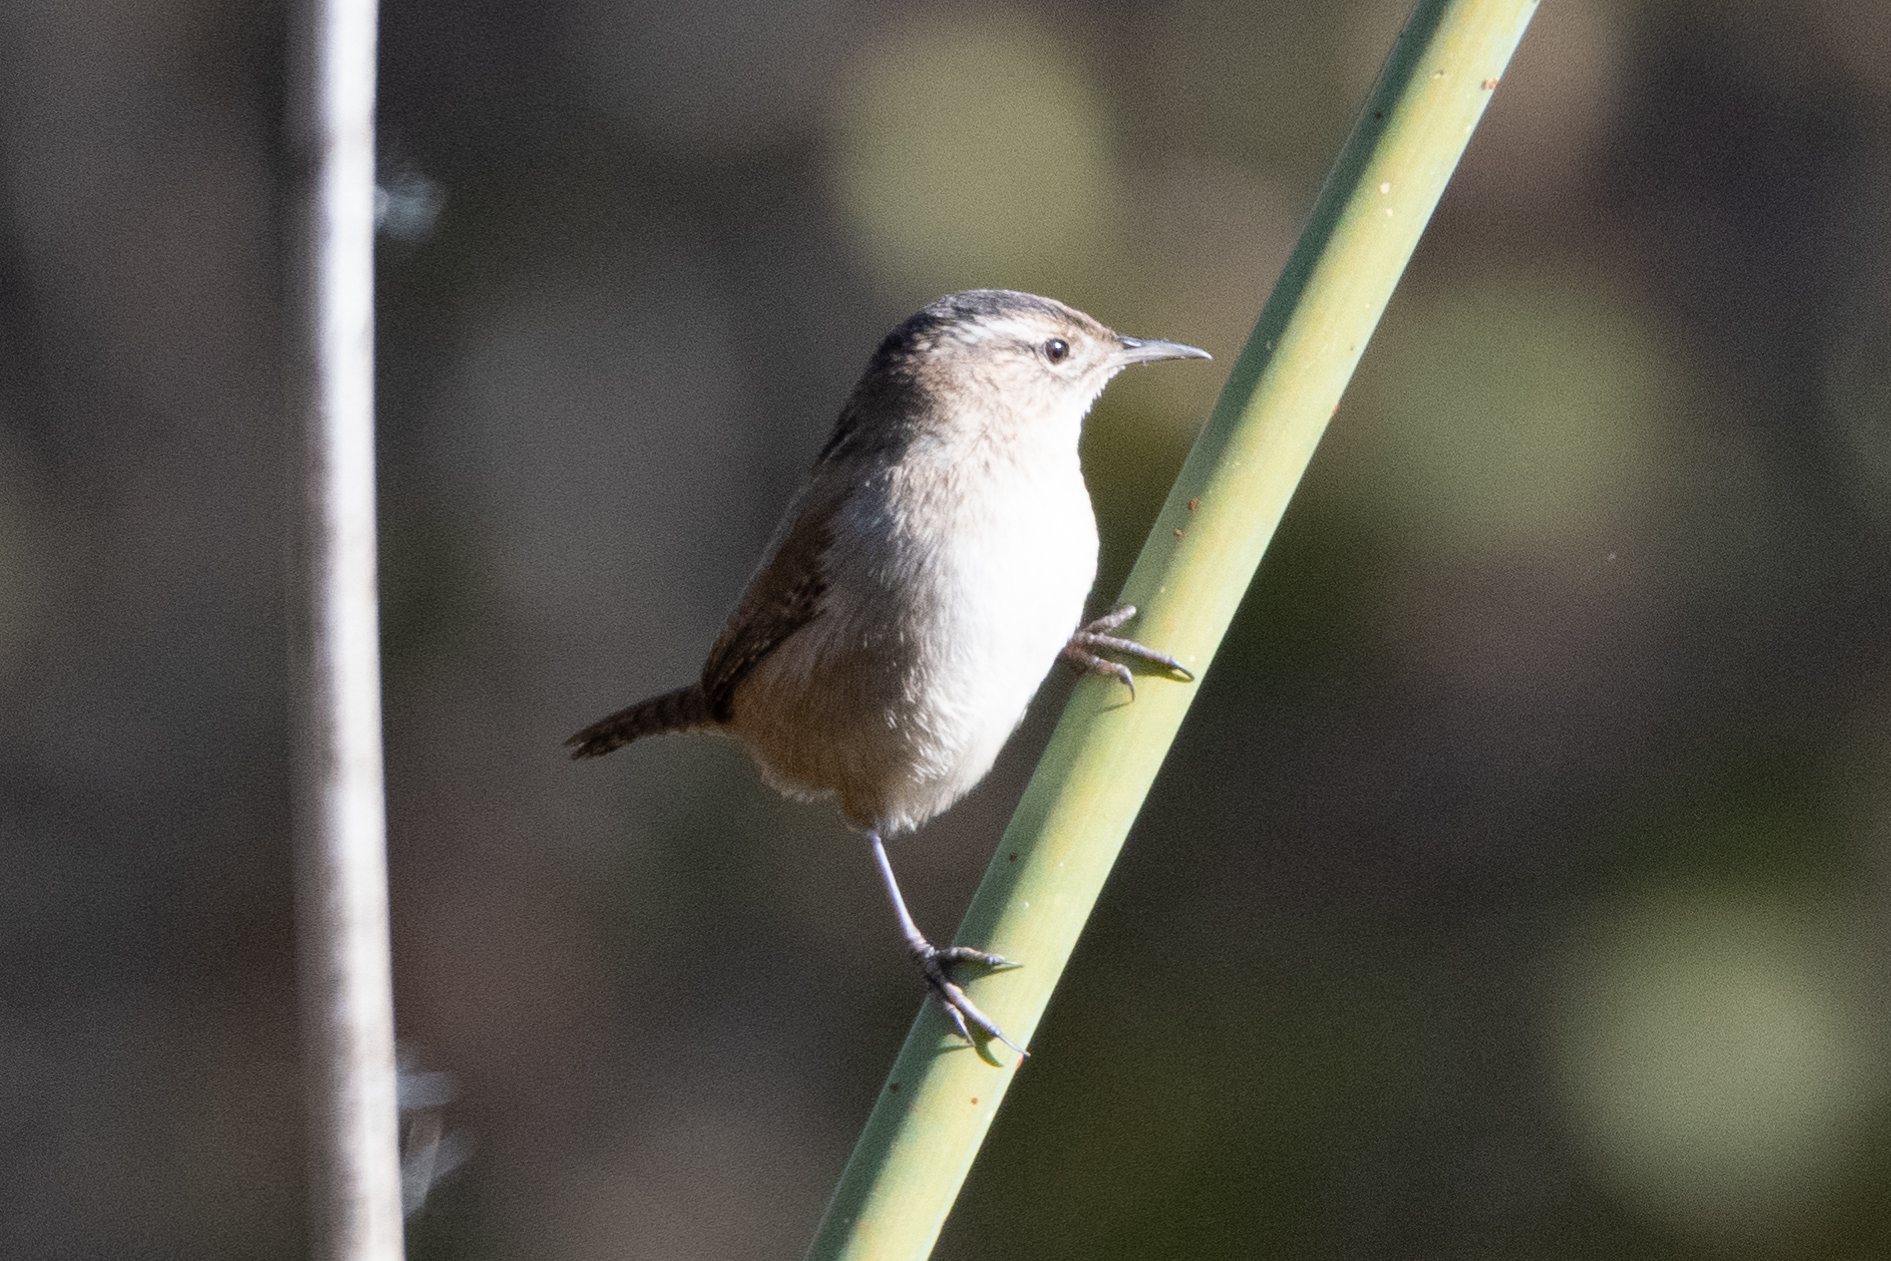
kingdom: Animalia
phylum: Chordata
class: Aves
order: Passeriformes
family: Troglodytidae
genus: Cistothorus
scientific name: Cistothorus palustris
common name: Marsh wren
